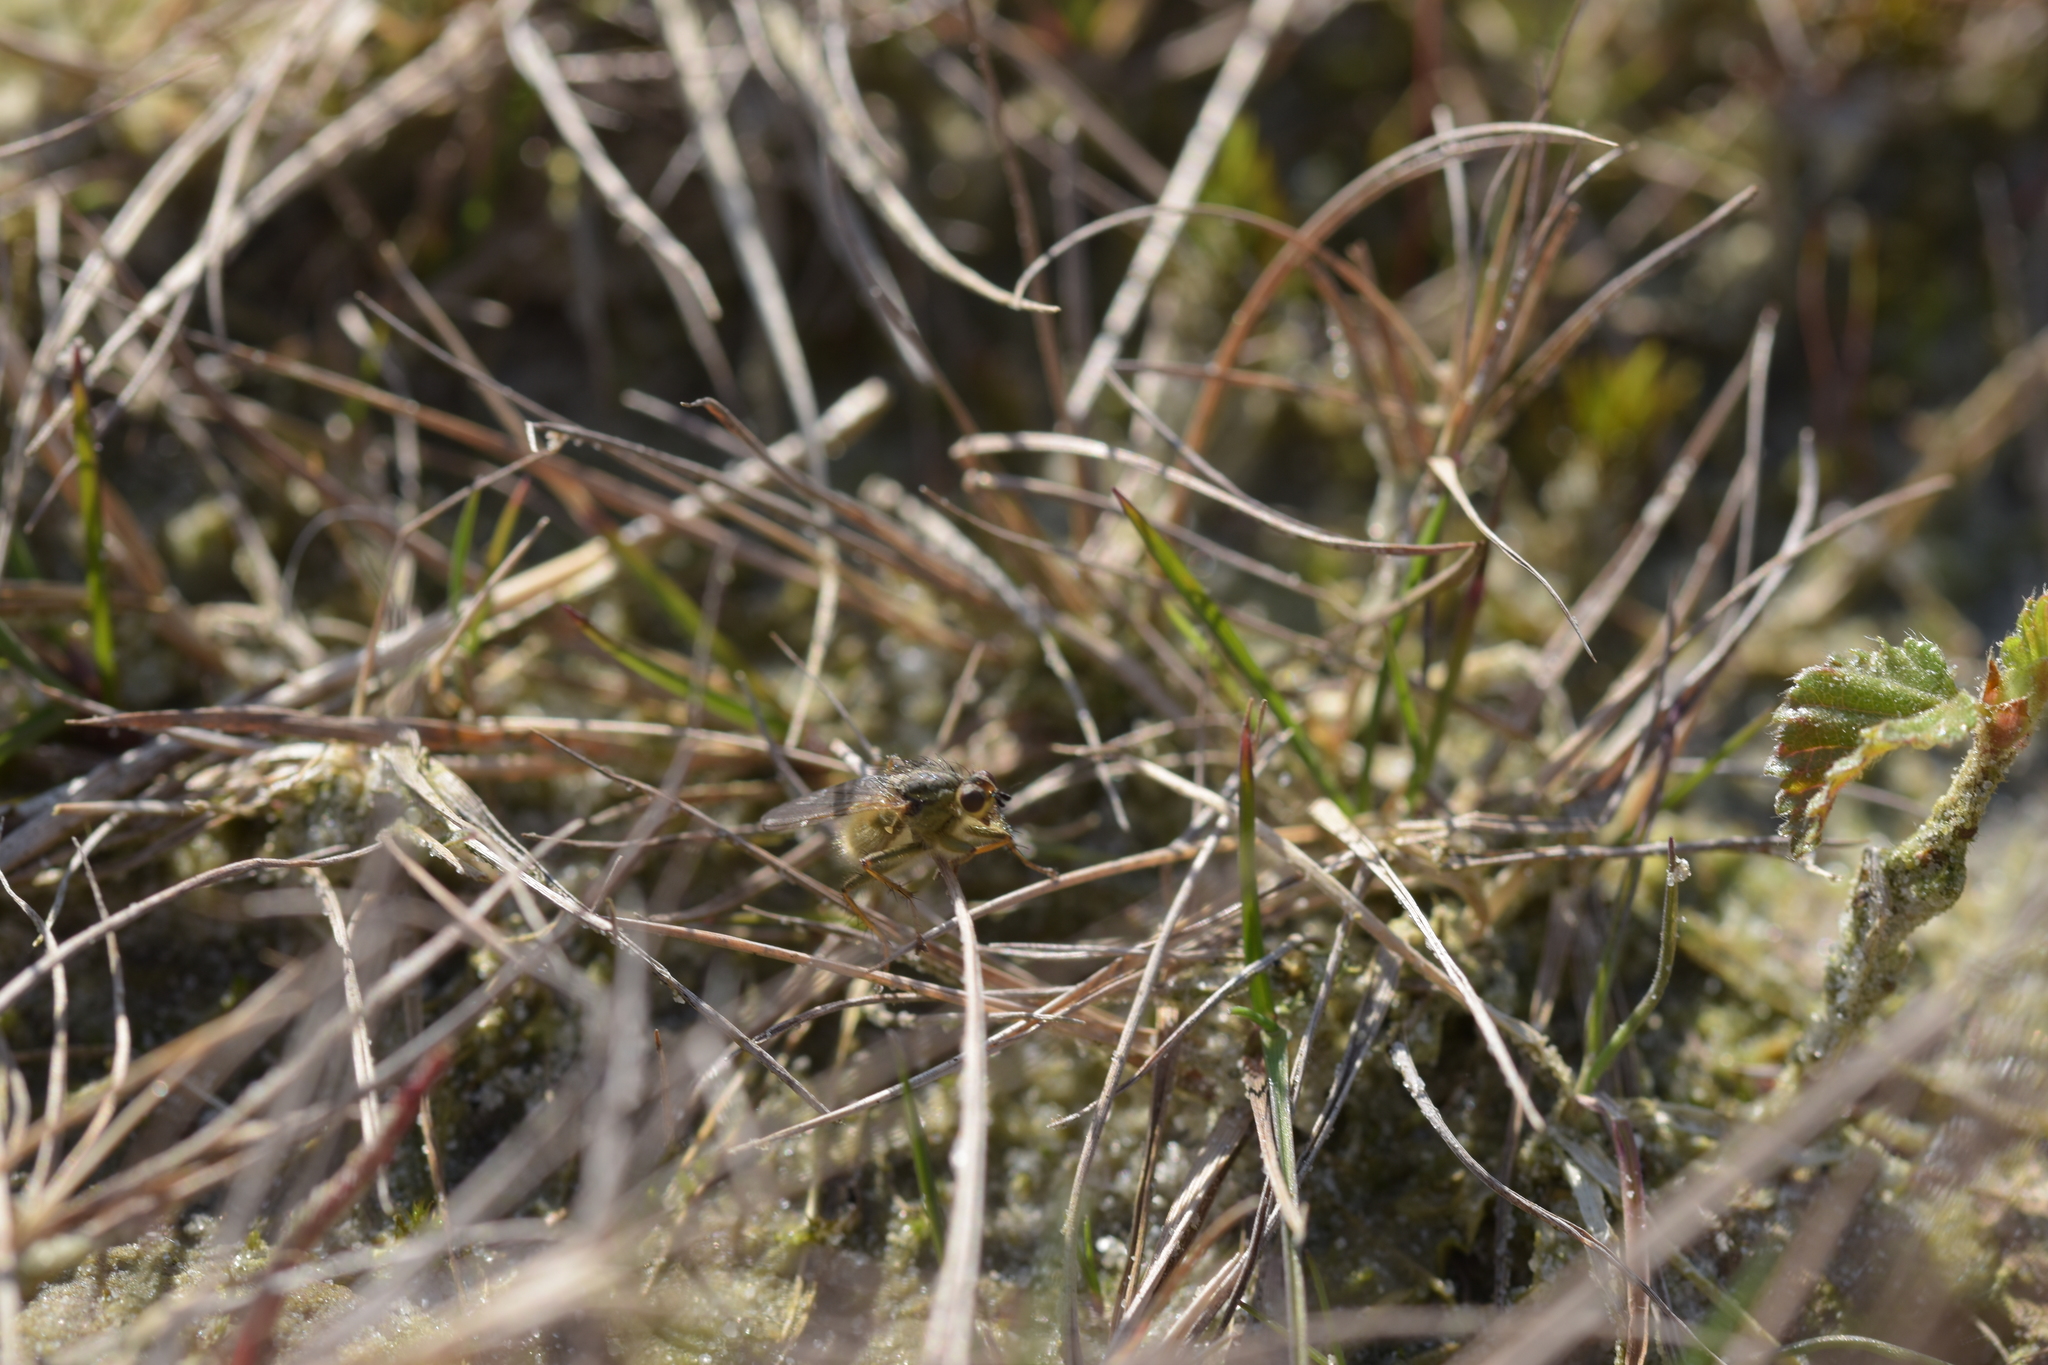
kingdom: Animalia
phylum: Arthropoda
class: Insecta
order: Diptera
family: Scathophagidae
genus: Scathophaga
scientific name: Scathophaga stercoraria
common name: Yellow dung fly
